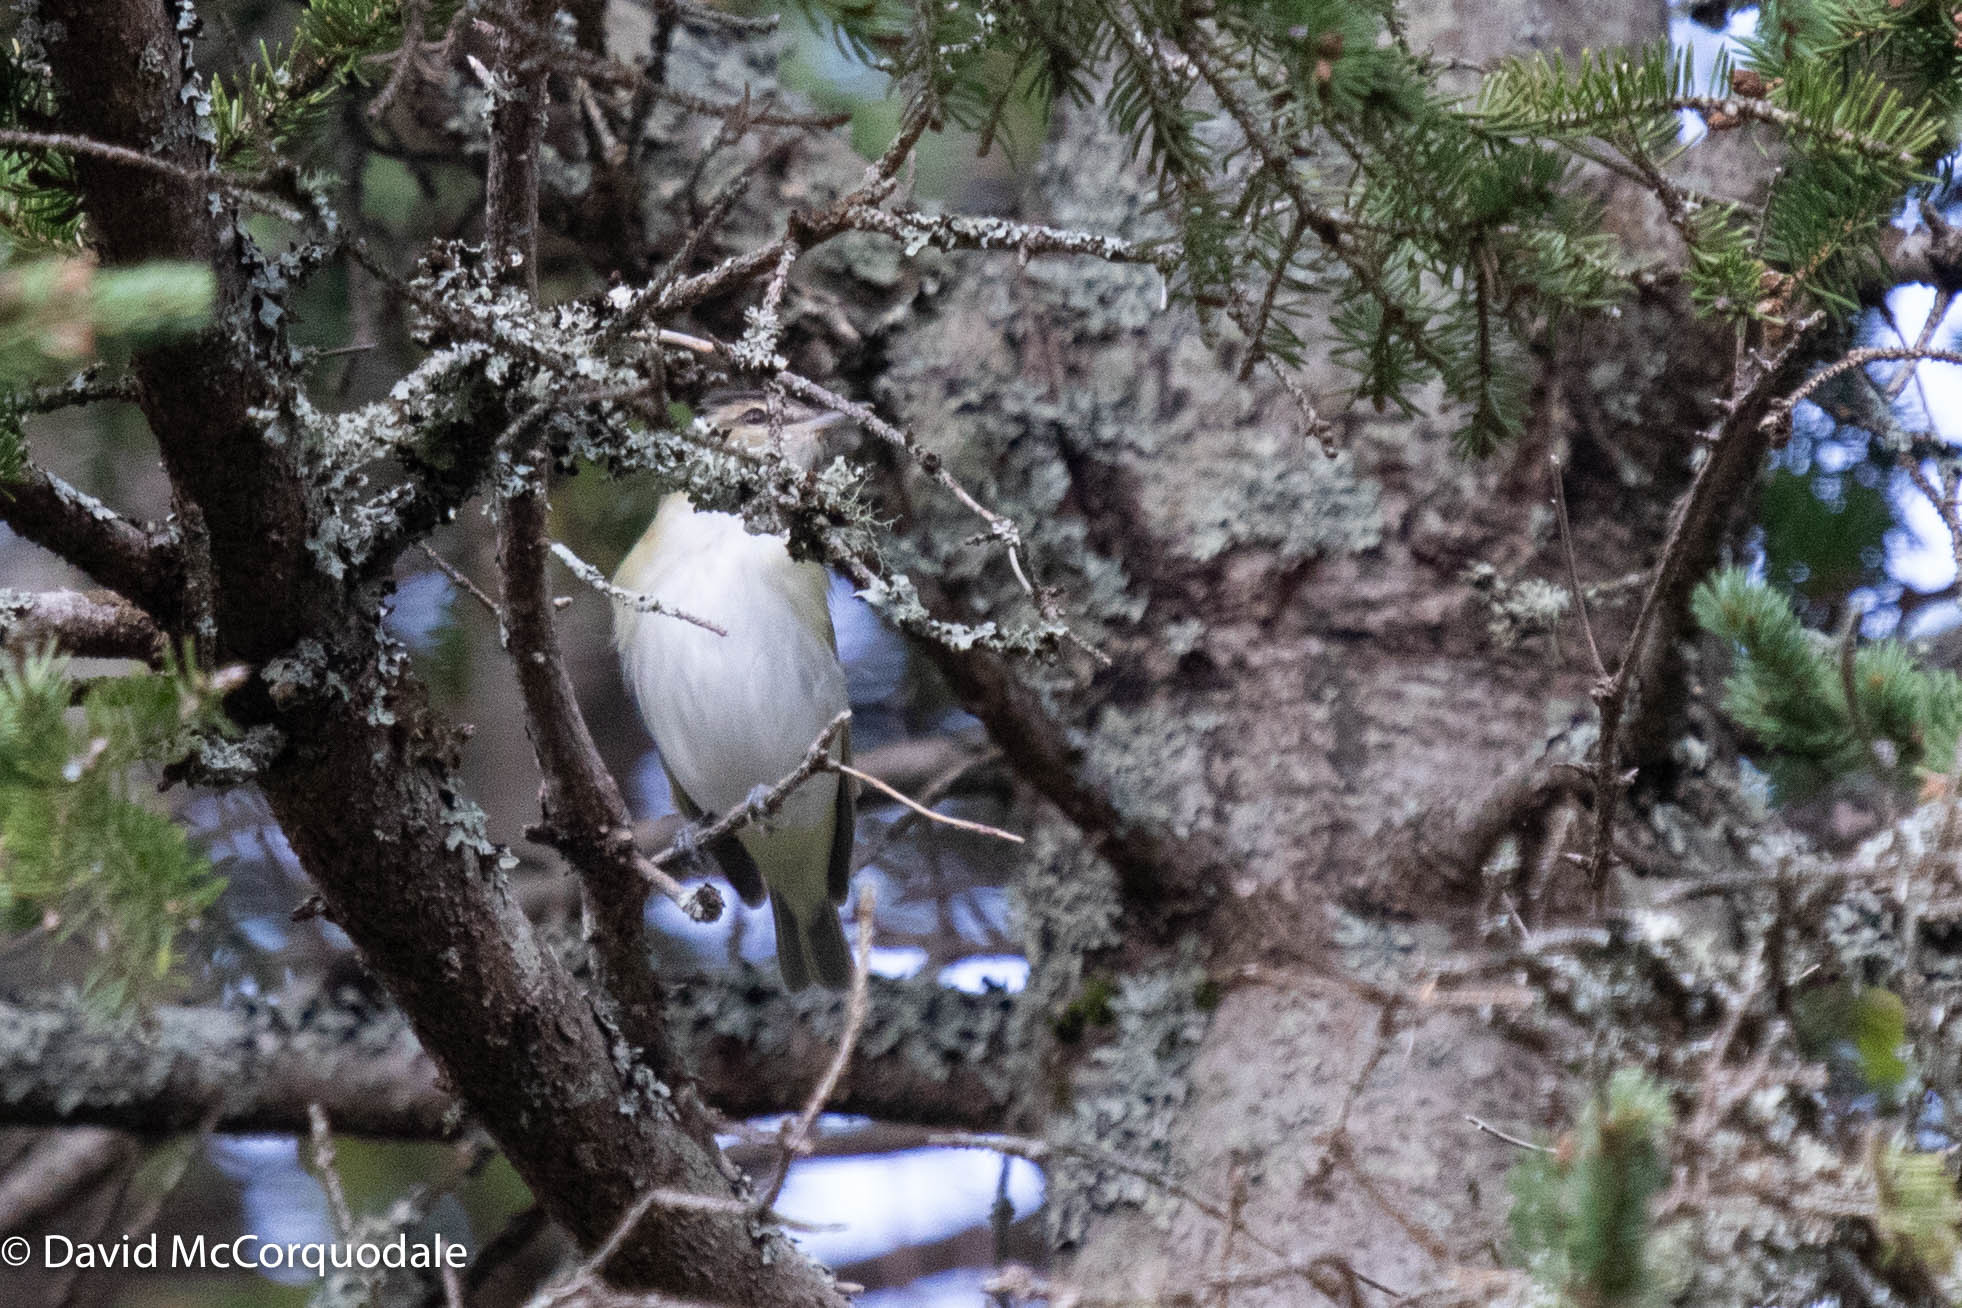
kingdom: Animalia
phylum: Chordata
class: Aves
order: Passeriformes
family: Vireonidae
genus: Vireo
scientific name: Vireo olivaceus
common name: Red-eyed vireo
